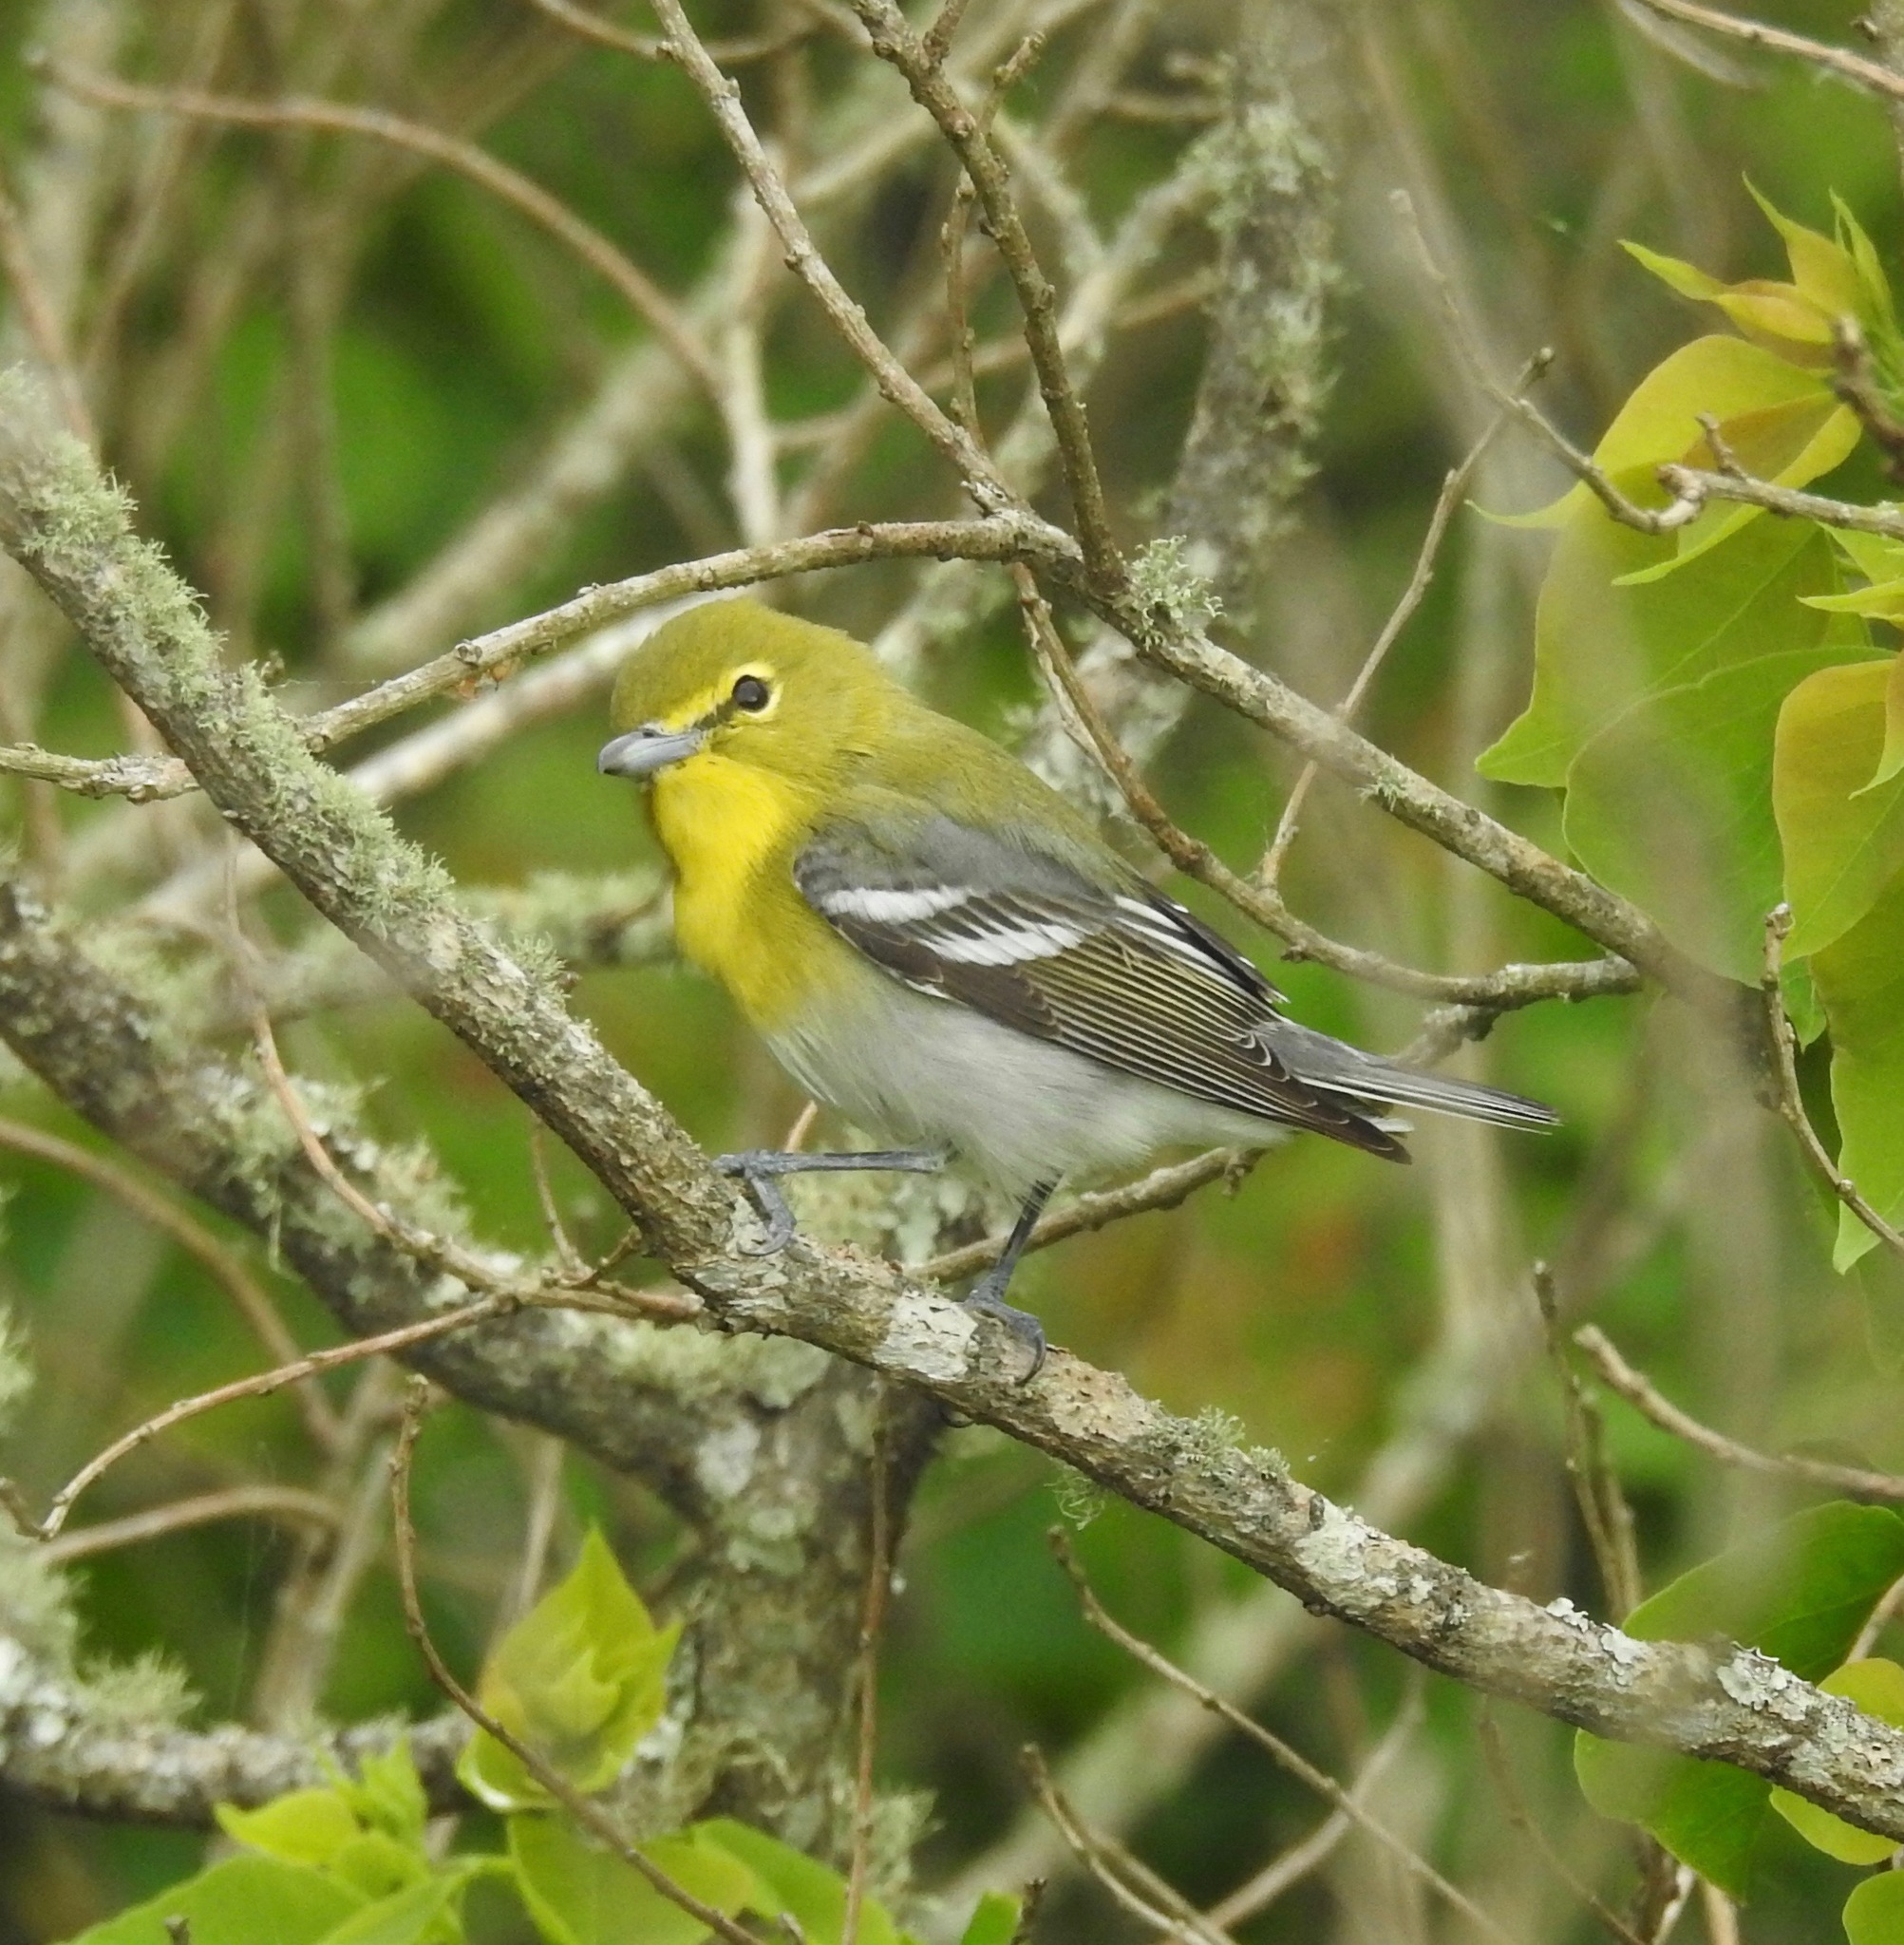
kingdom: Animalia
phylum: Chordata
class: Aves
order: Passeriformes
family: Vireonidae
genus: Vireo
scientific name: Vireo flavifrons
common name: Yellow-throated vireo
